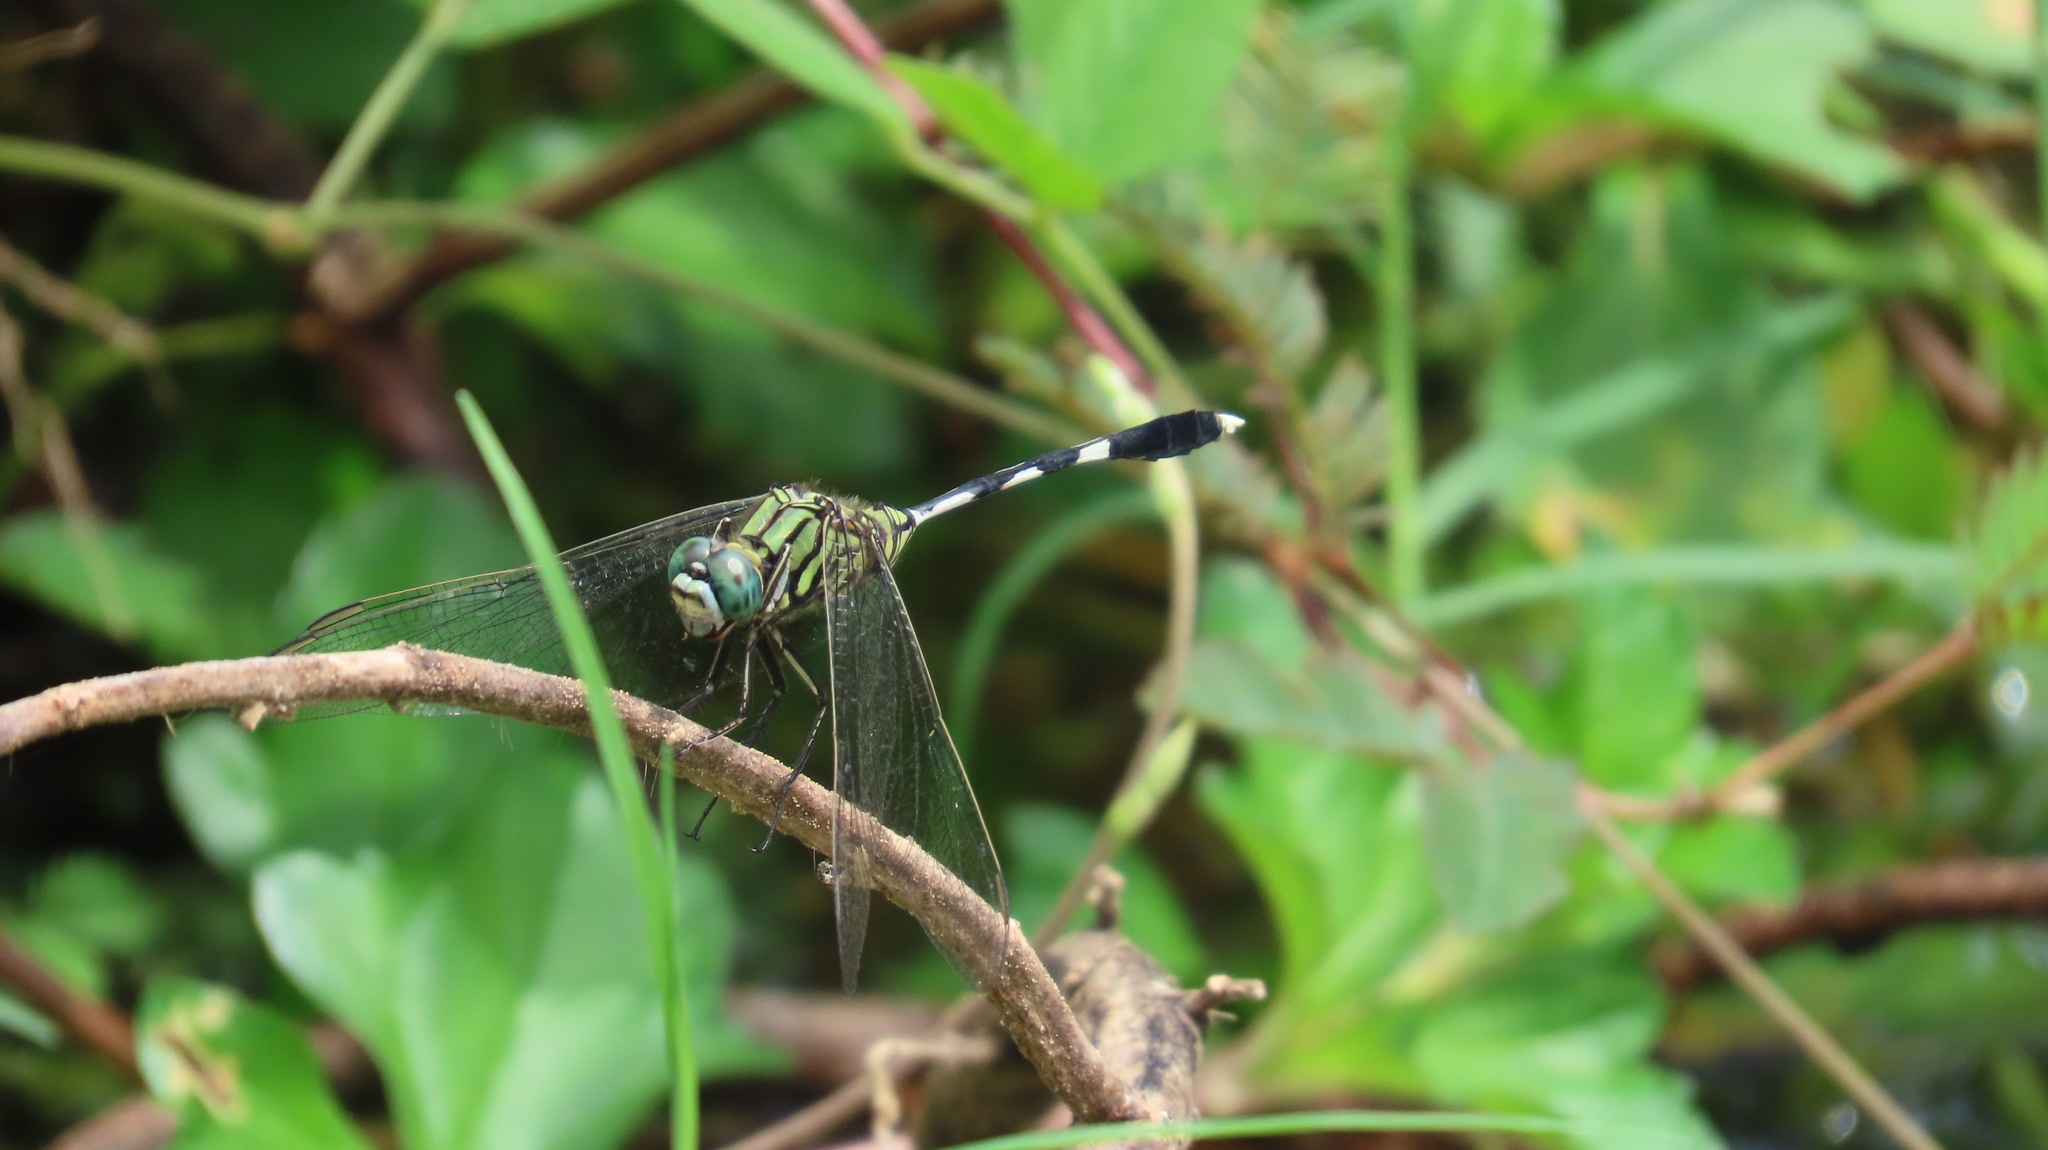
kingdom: Animalia
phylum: Arthropoda
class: Insecta
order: Odonata
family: Libellulidae
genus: Orthetrum
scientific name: Orthetrum sabina
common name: Slender skimmer
